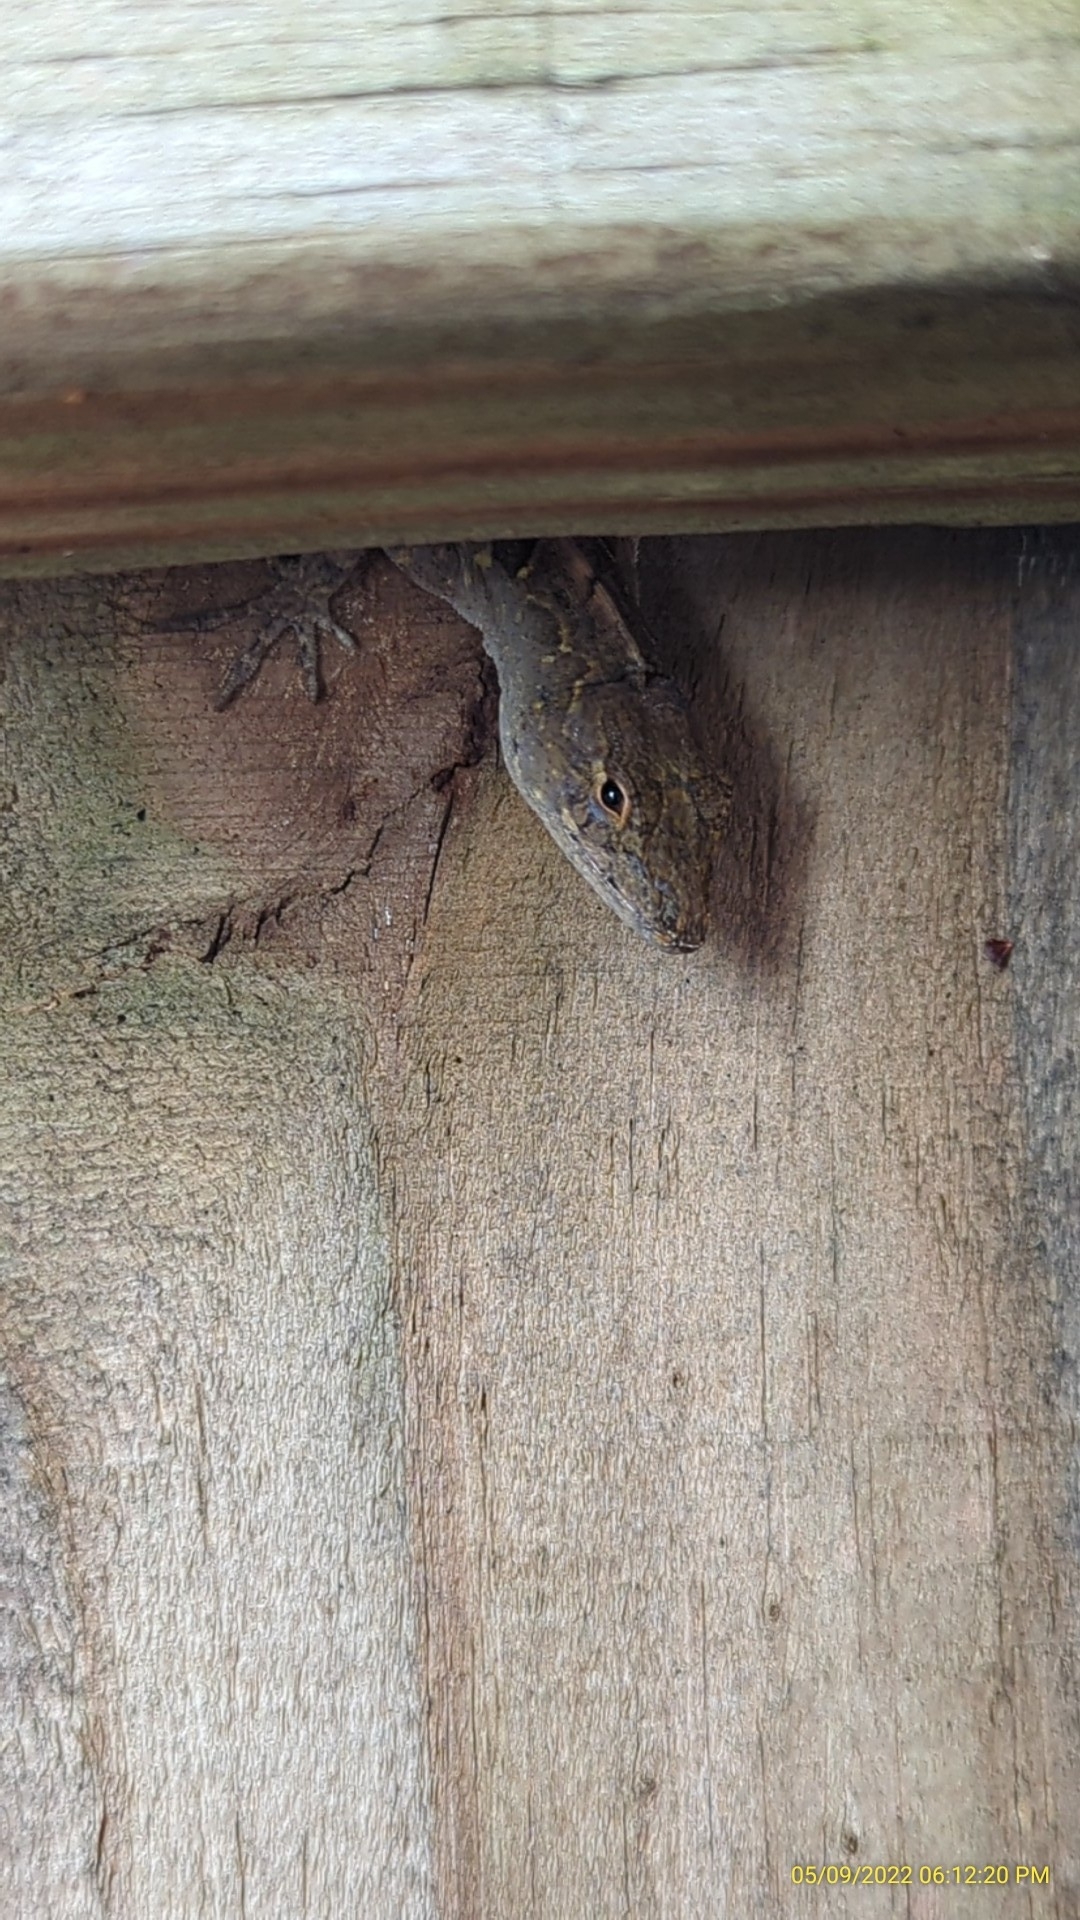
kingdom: Animalia
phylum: Chordata
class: Squamata
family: Dactyloidae
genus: Anolis
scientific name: Anolis sagrei
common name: Brown anole
